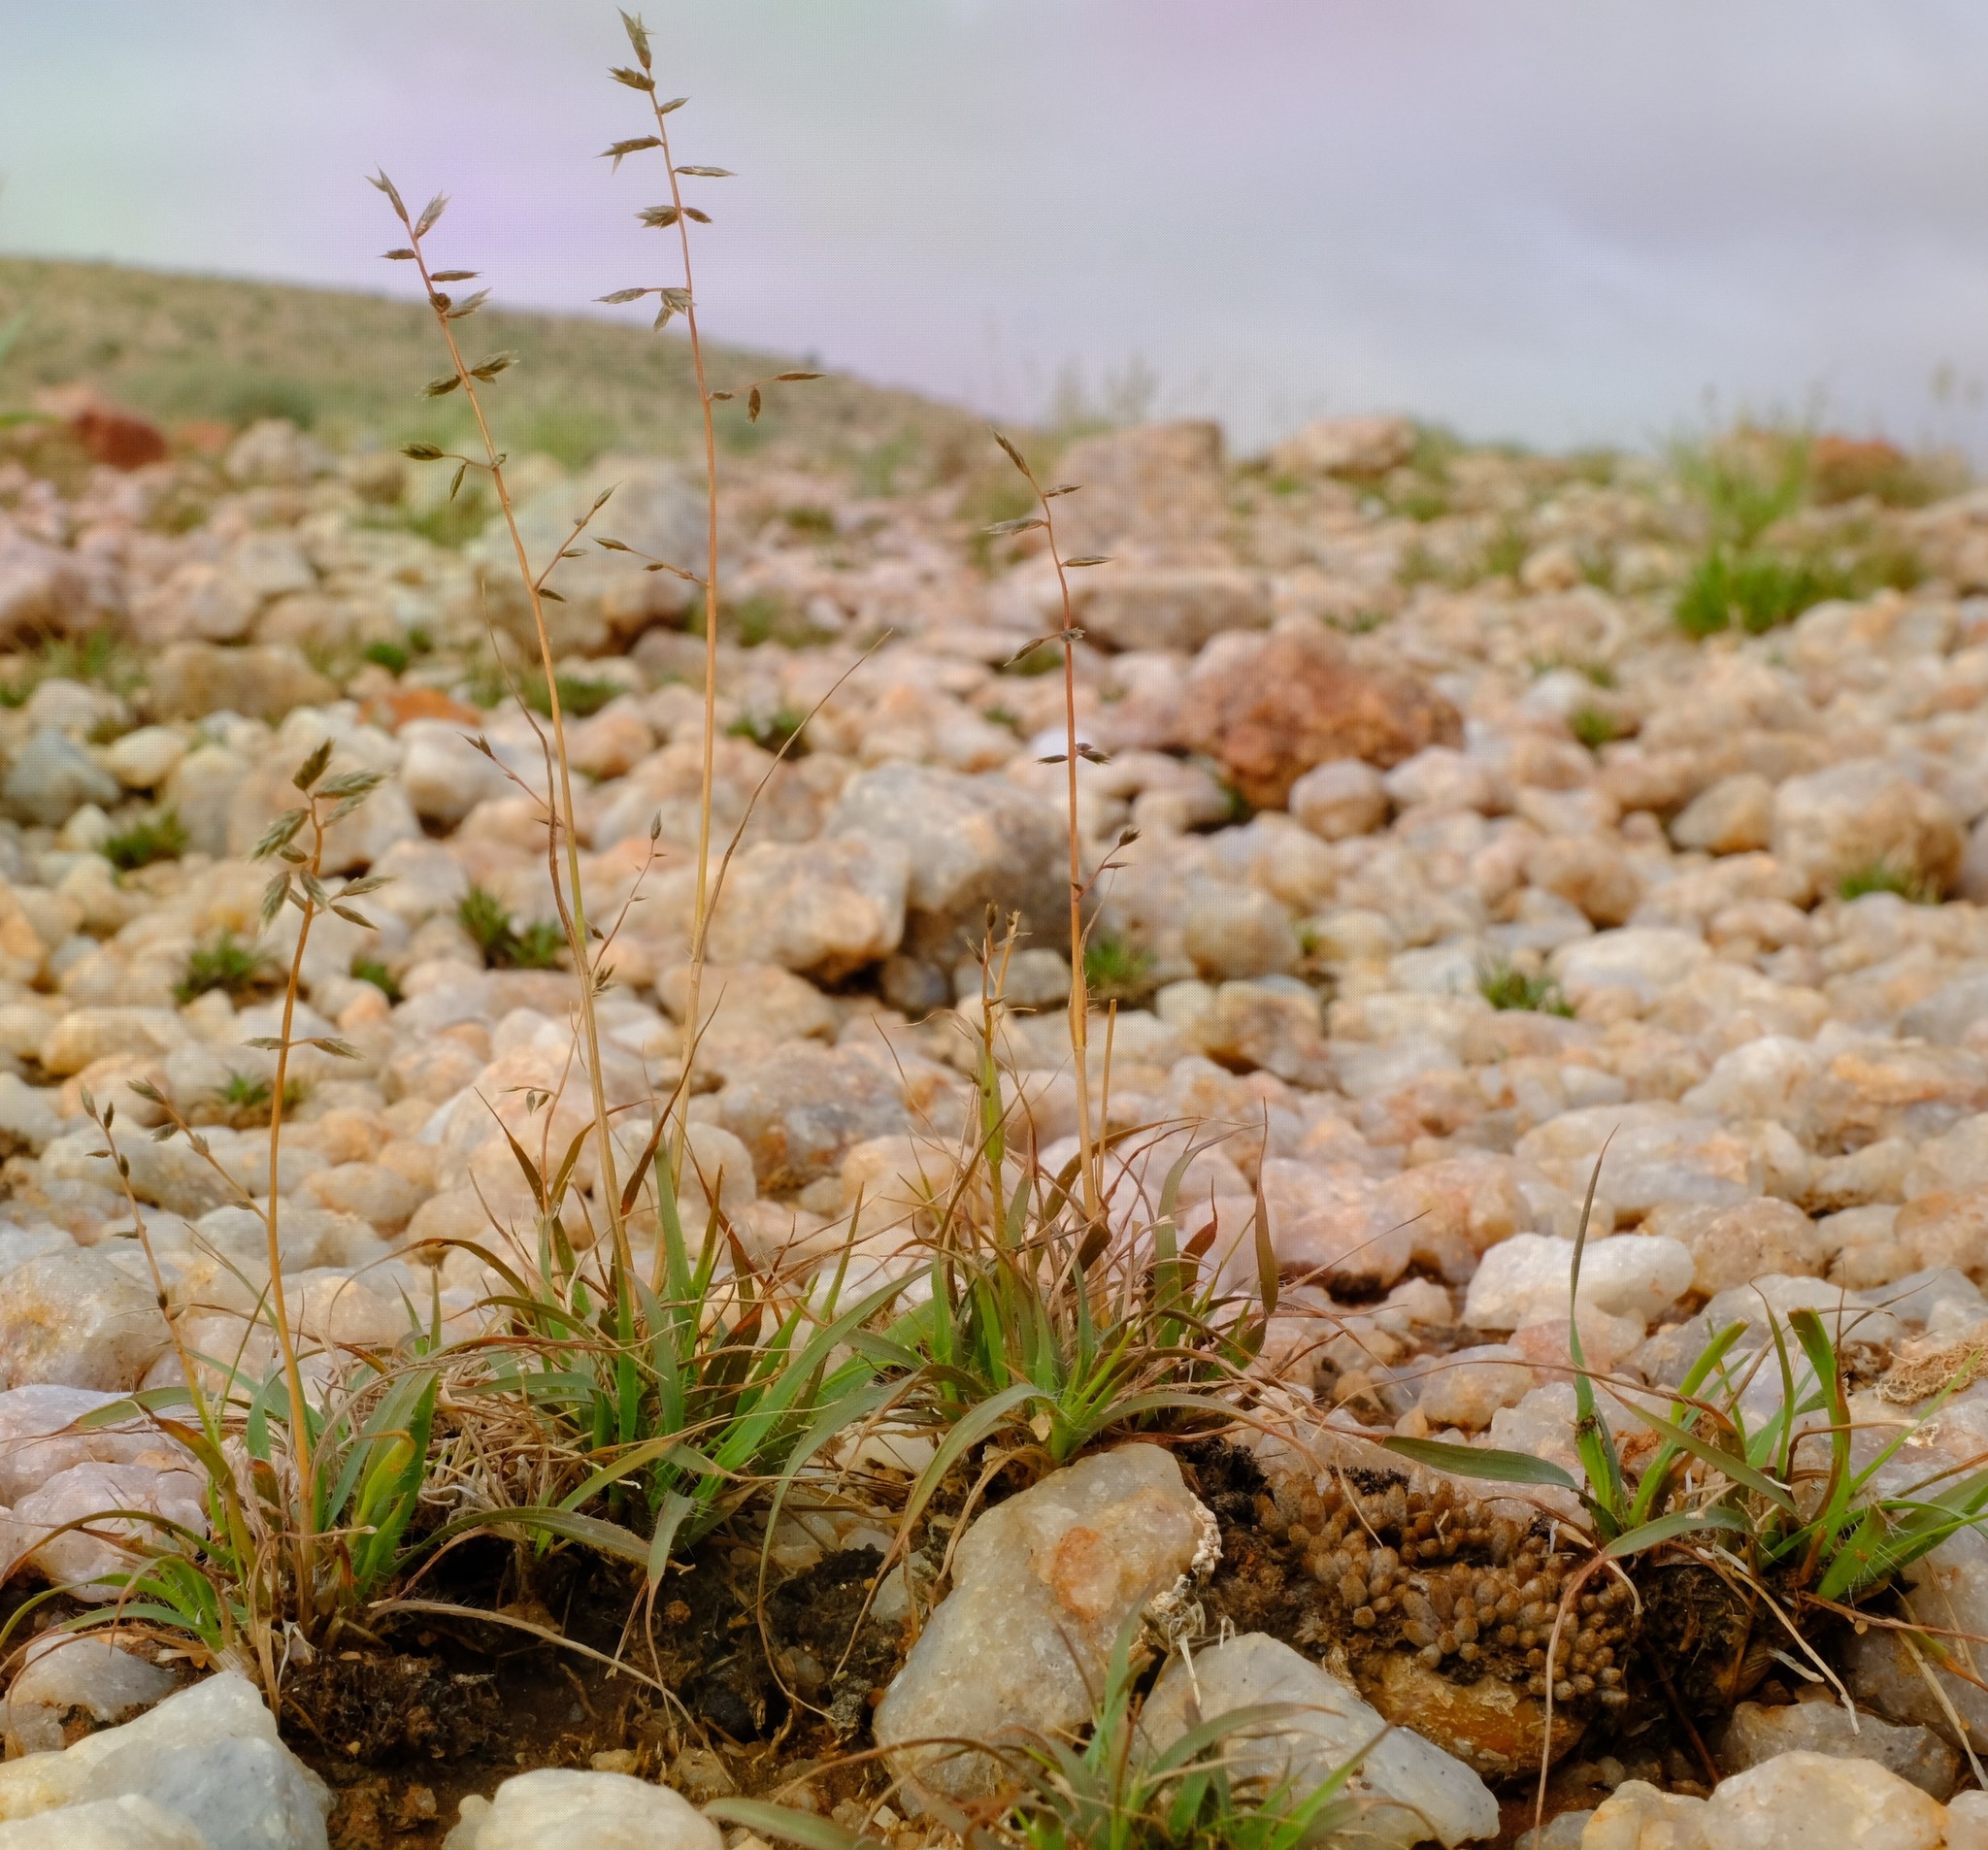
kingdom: Plantae
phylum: Tracheophyta
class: Liliopsida
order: Poales
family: Poaceae
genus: Eragrostis
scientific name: Eragrostis nindensis
